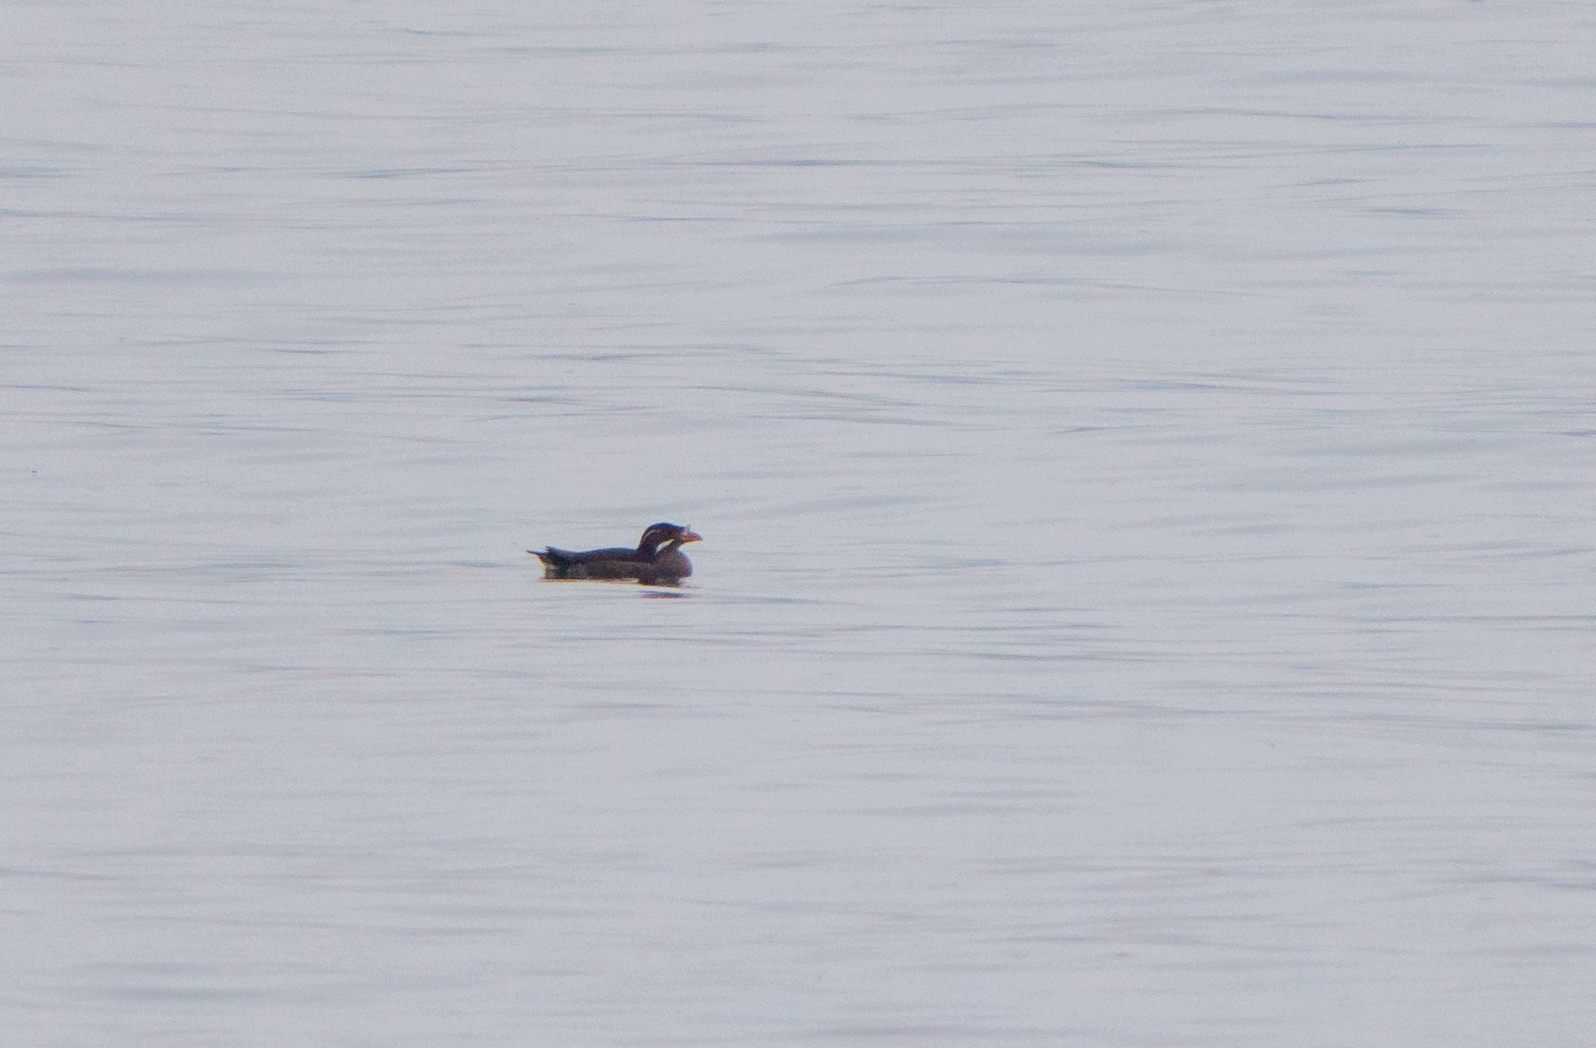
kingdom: Animalia
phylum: Chordata
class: Aves
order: Charadriiformes
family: Alcidae
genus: Cerorhinca
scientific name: Cerorhinca monocerata
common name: Rhinoceros auklet
